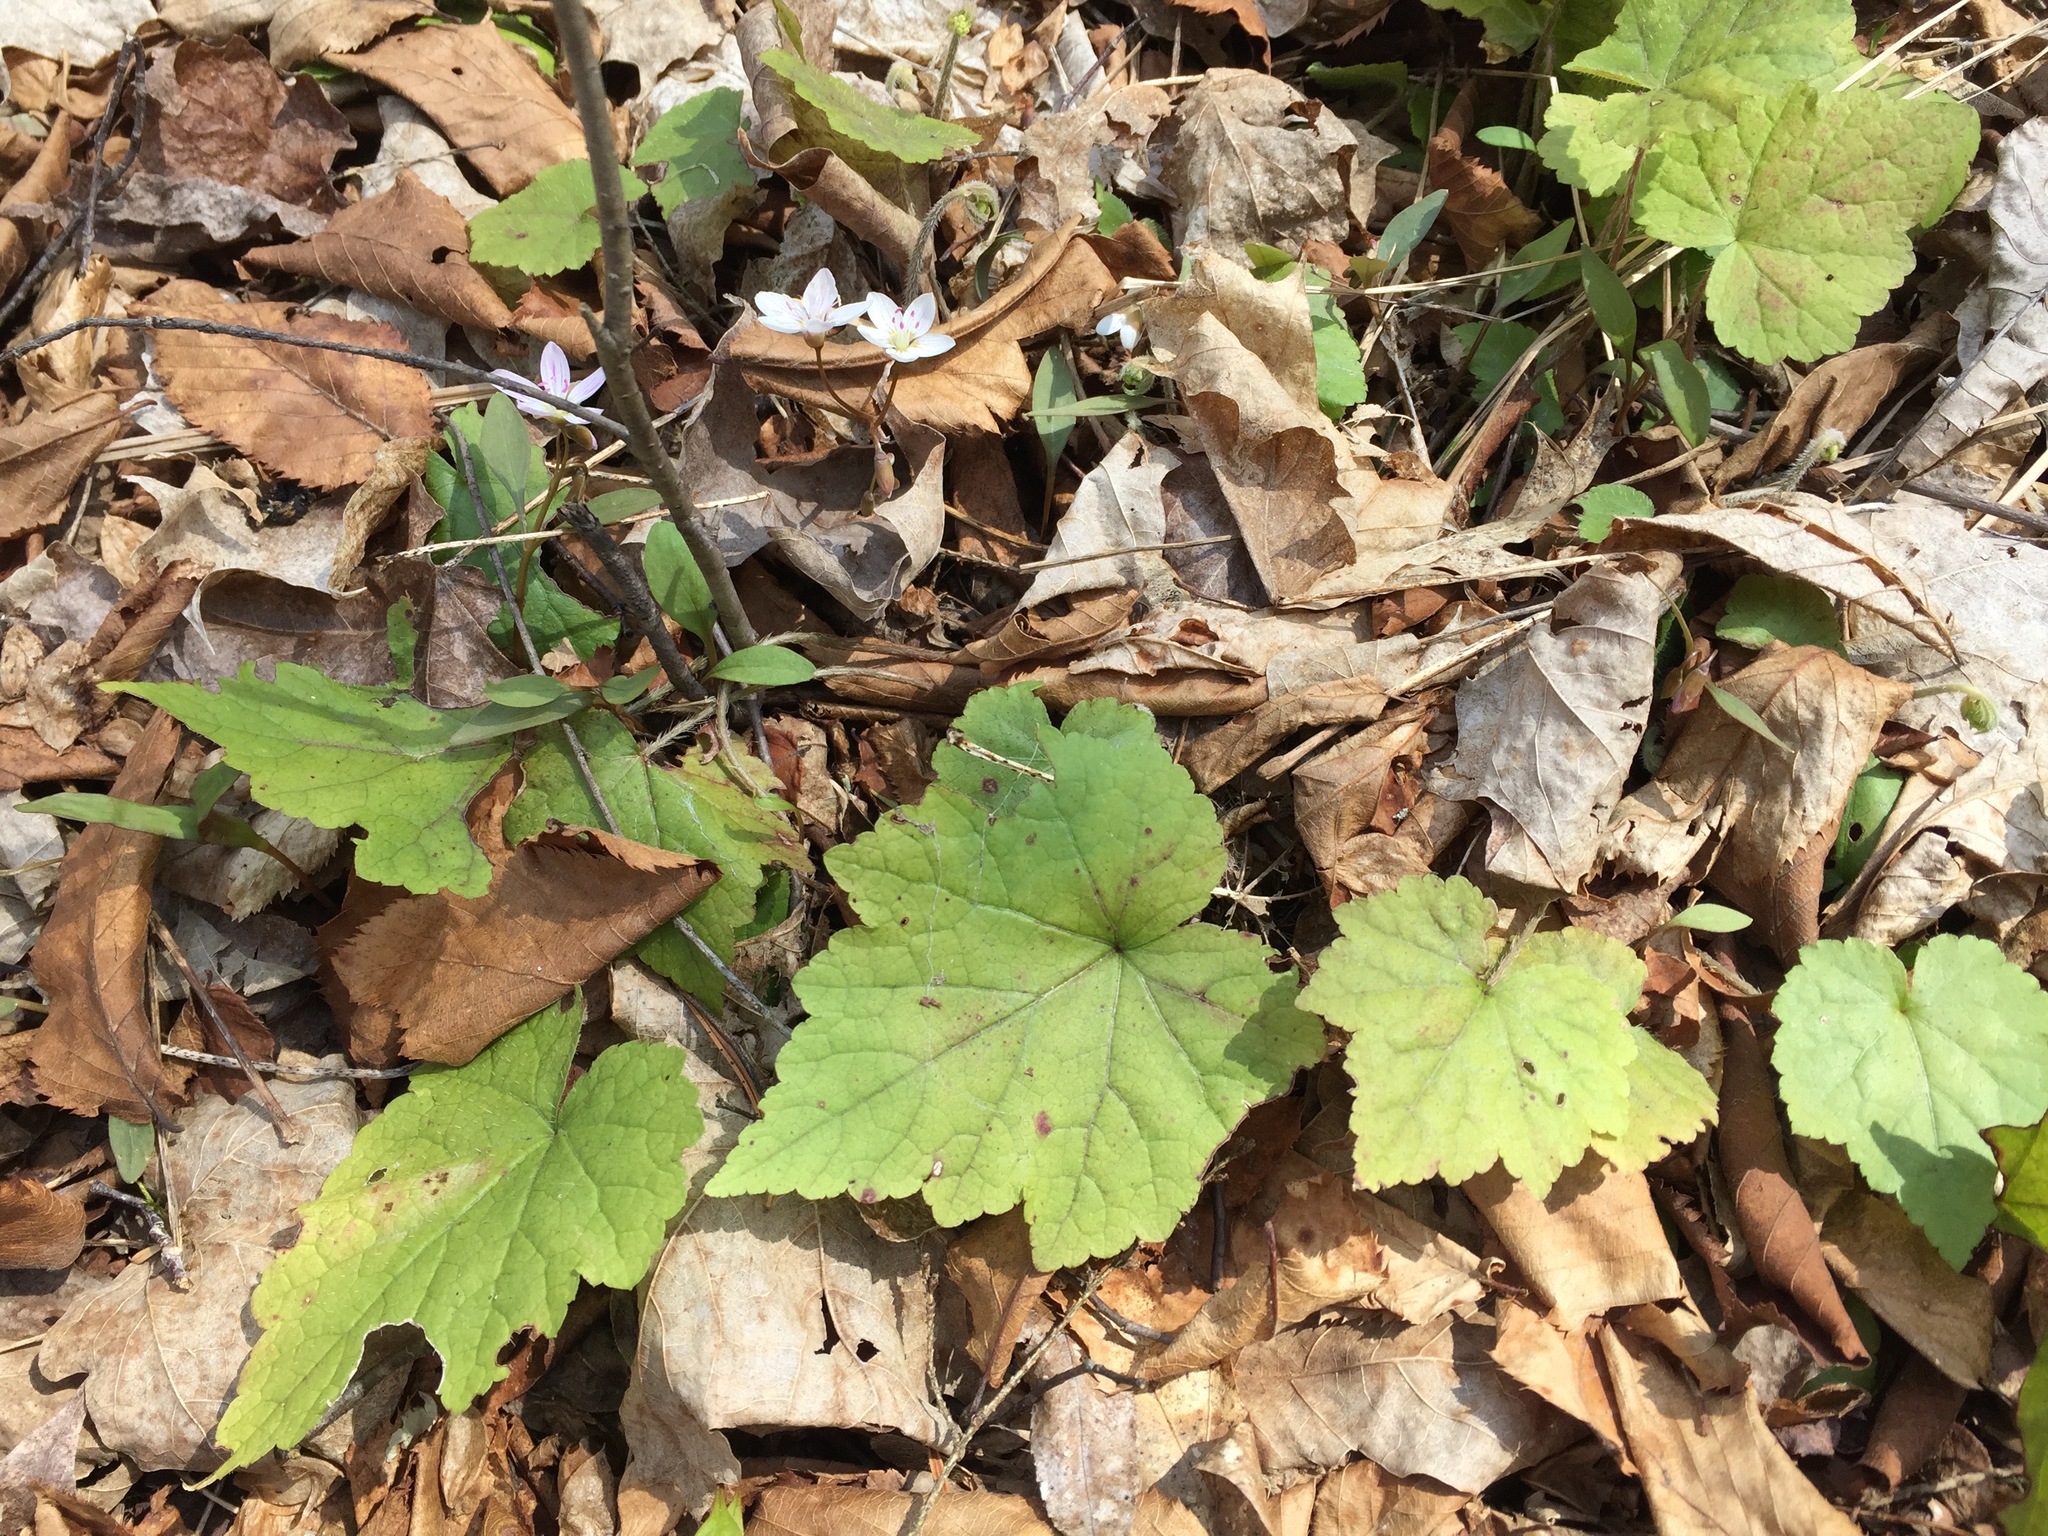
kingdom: Plantae
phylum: Tracheophyta
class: Magnoliopsida
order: Saxifragales
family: Saxifragaceae
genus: Mitella
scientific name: Mitella diphylla
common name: Coolwort
